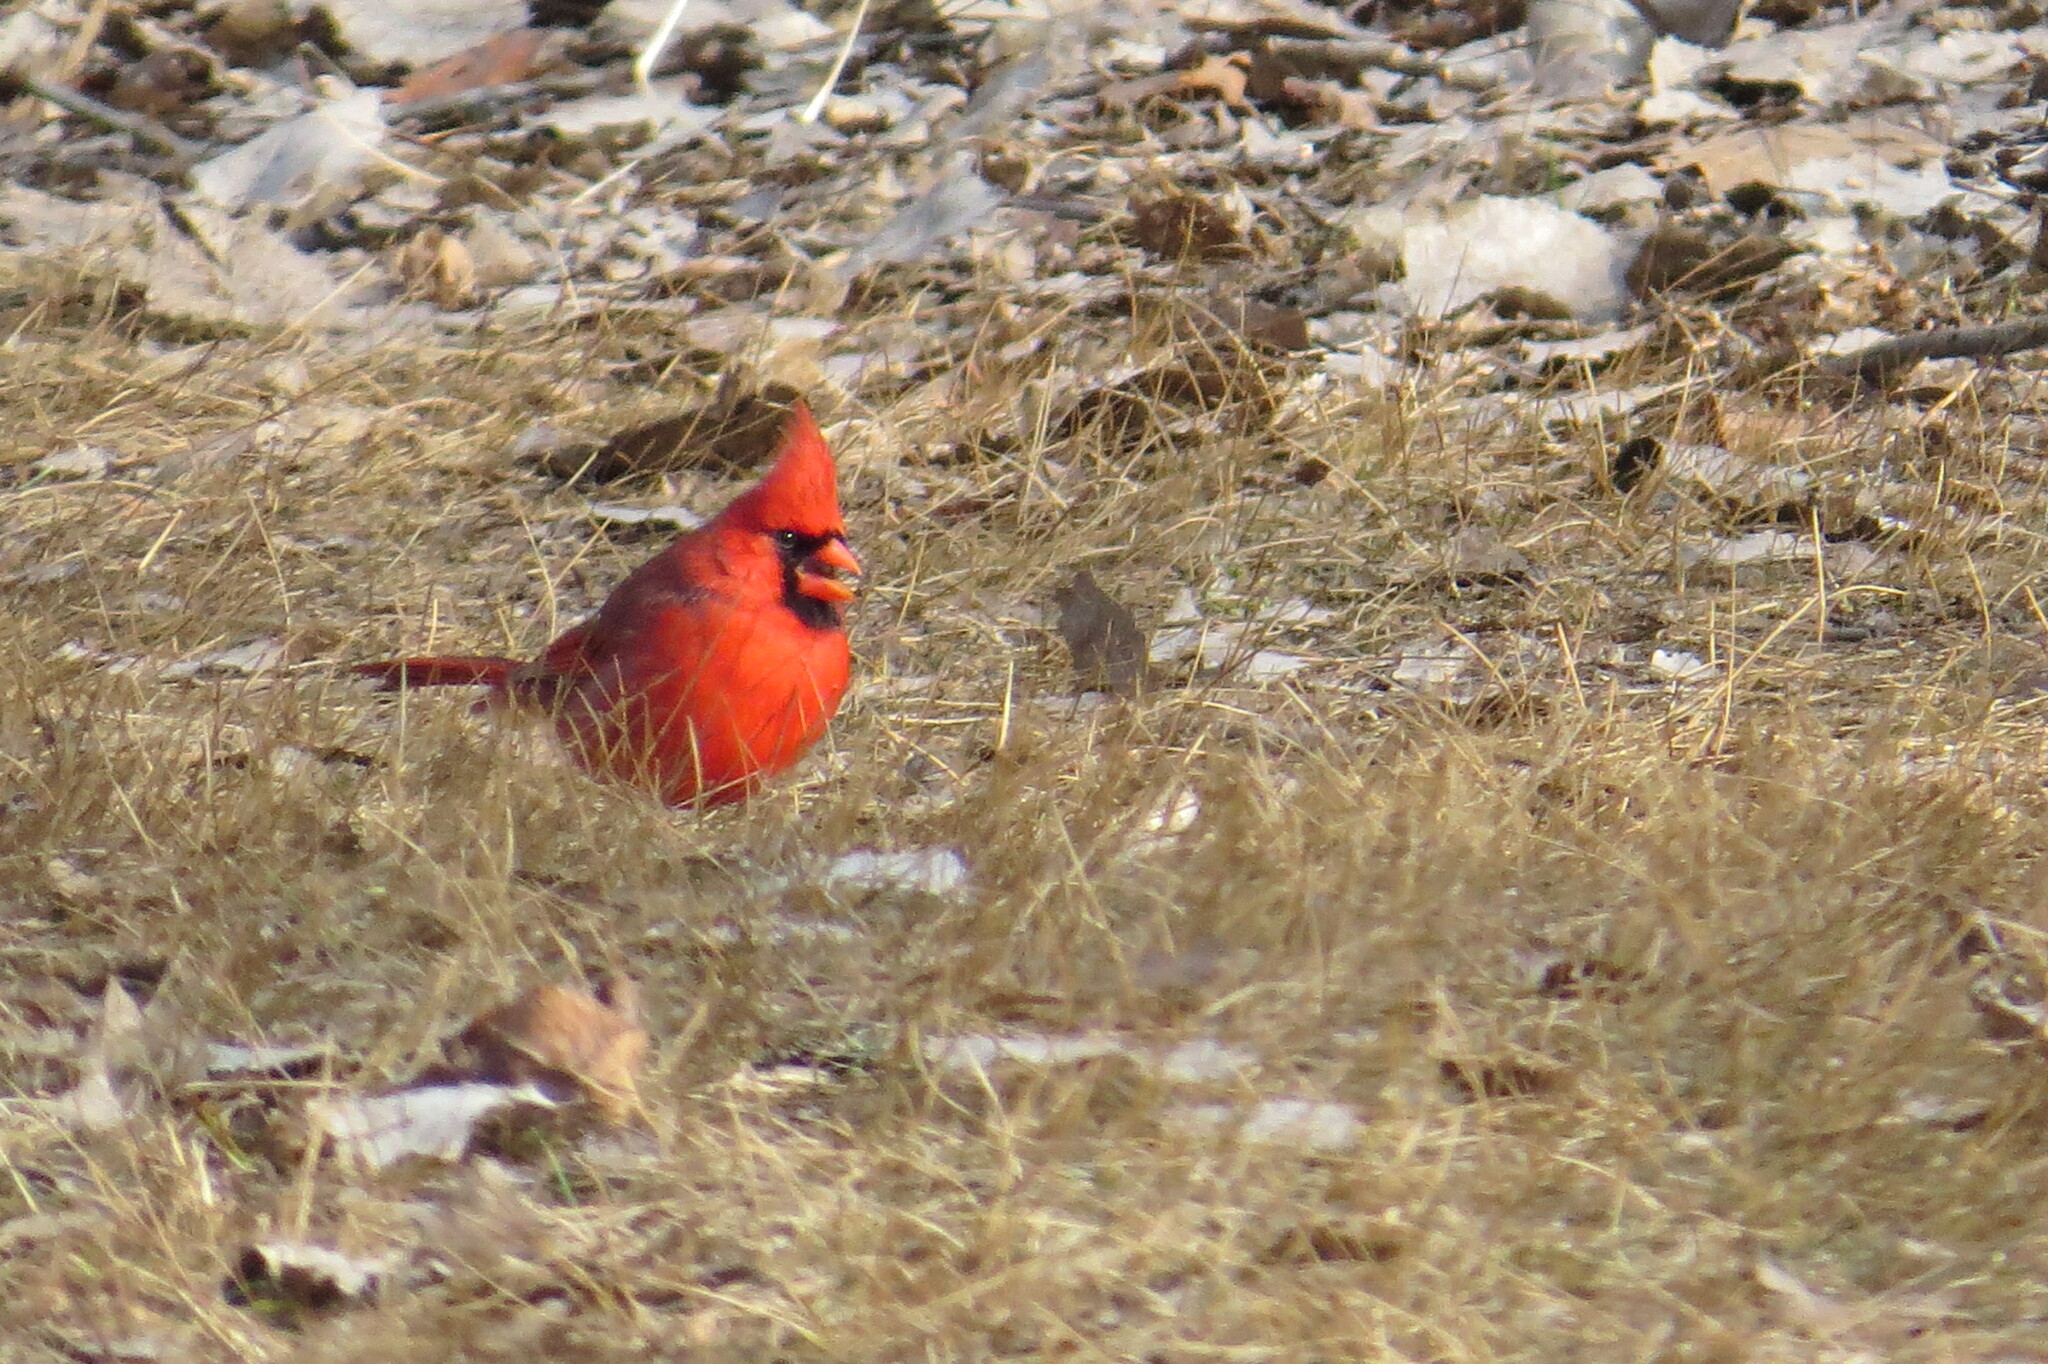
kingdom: Animalia
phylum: Chordata
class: Aves
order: Passeriformes
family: Cardinalidae
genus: Cardinalis
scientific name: Cardinalis cardinalis
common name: Northern cardinal
